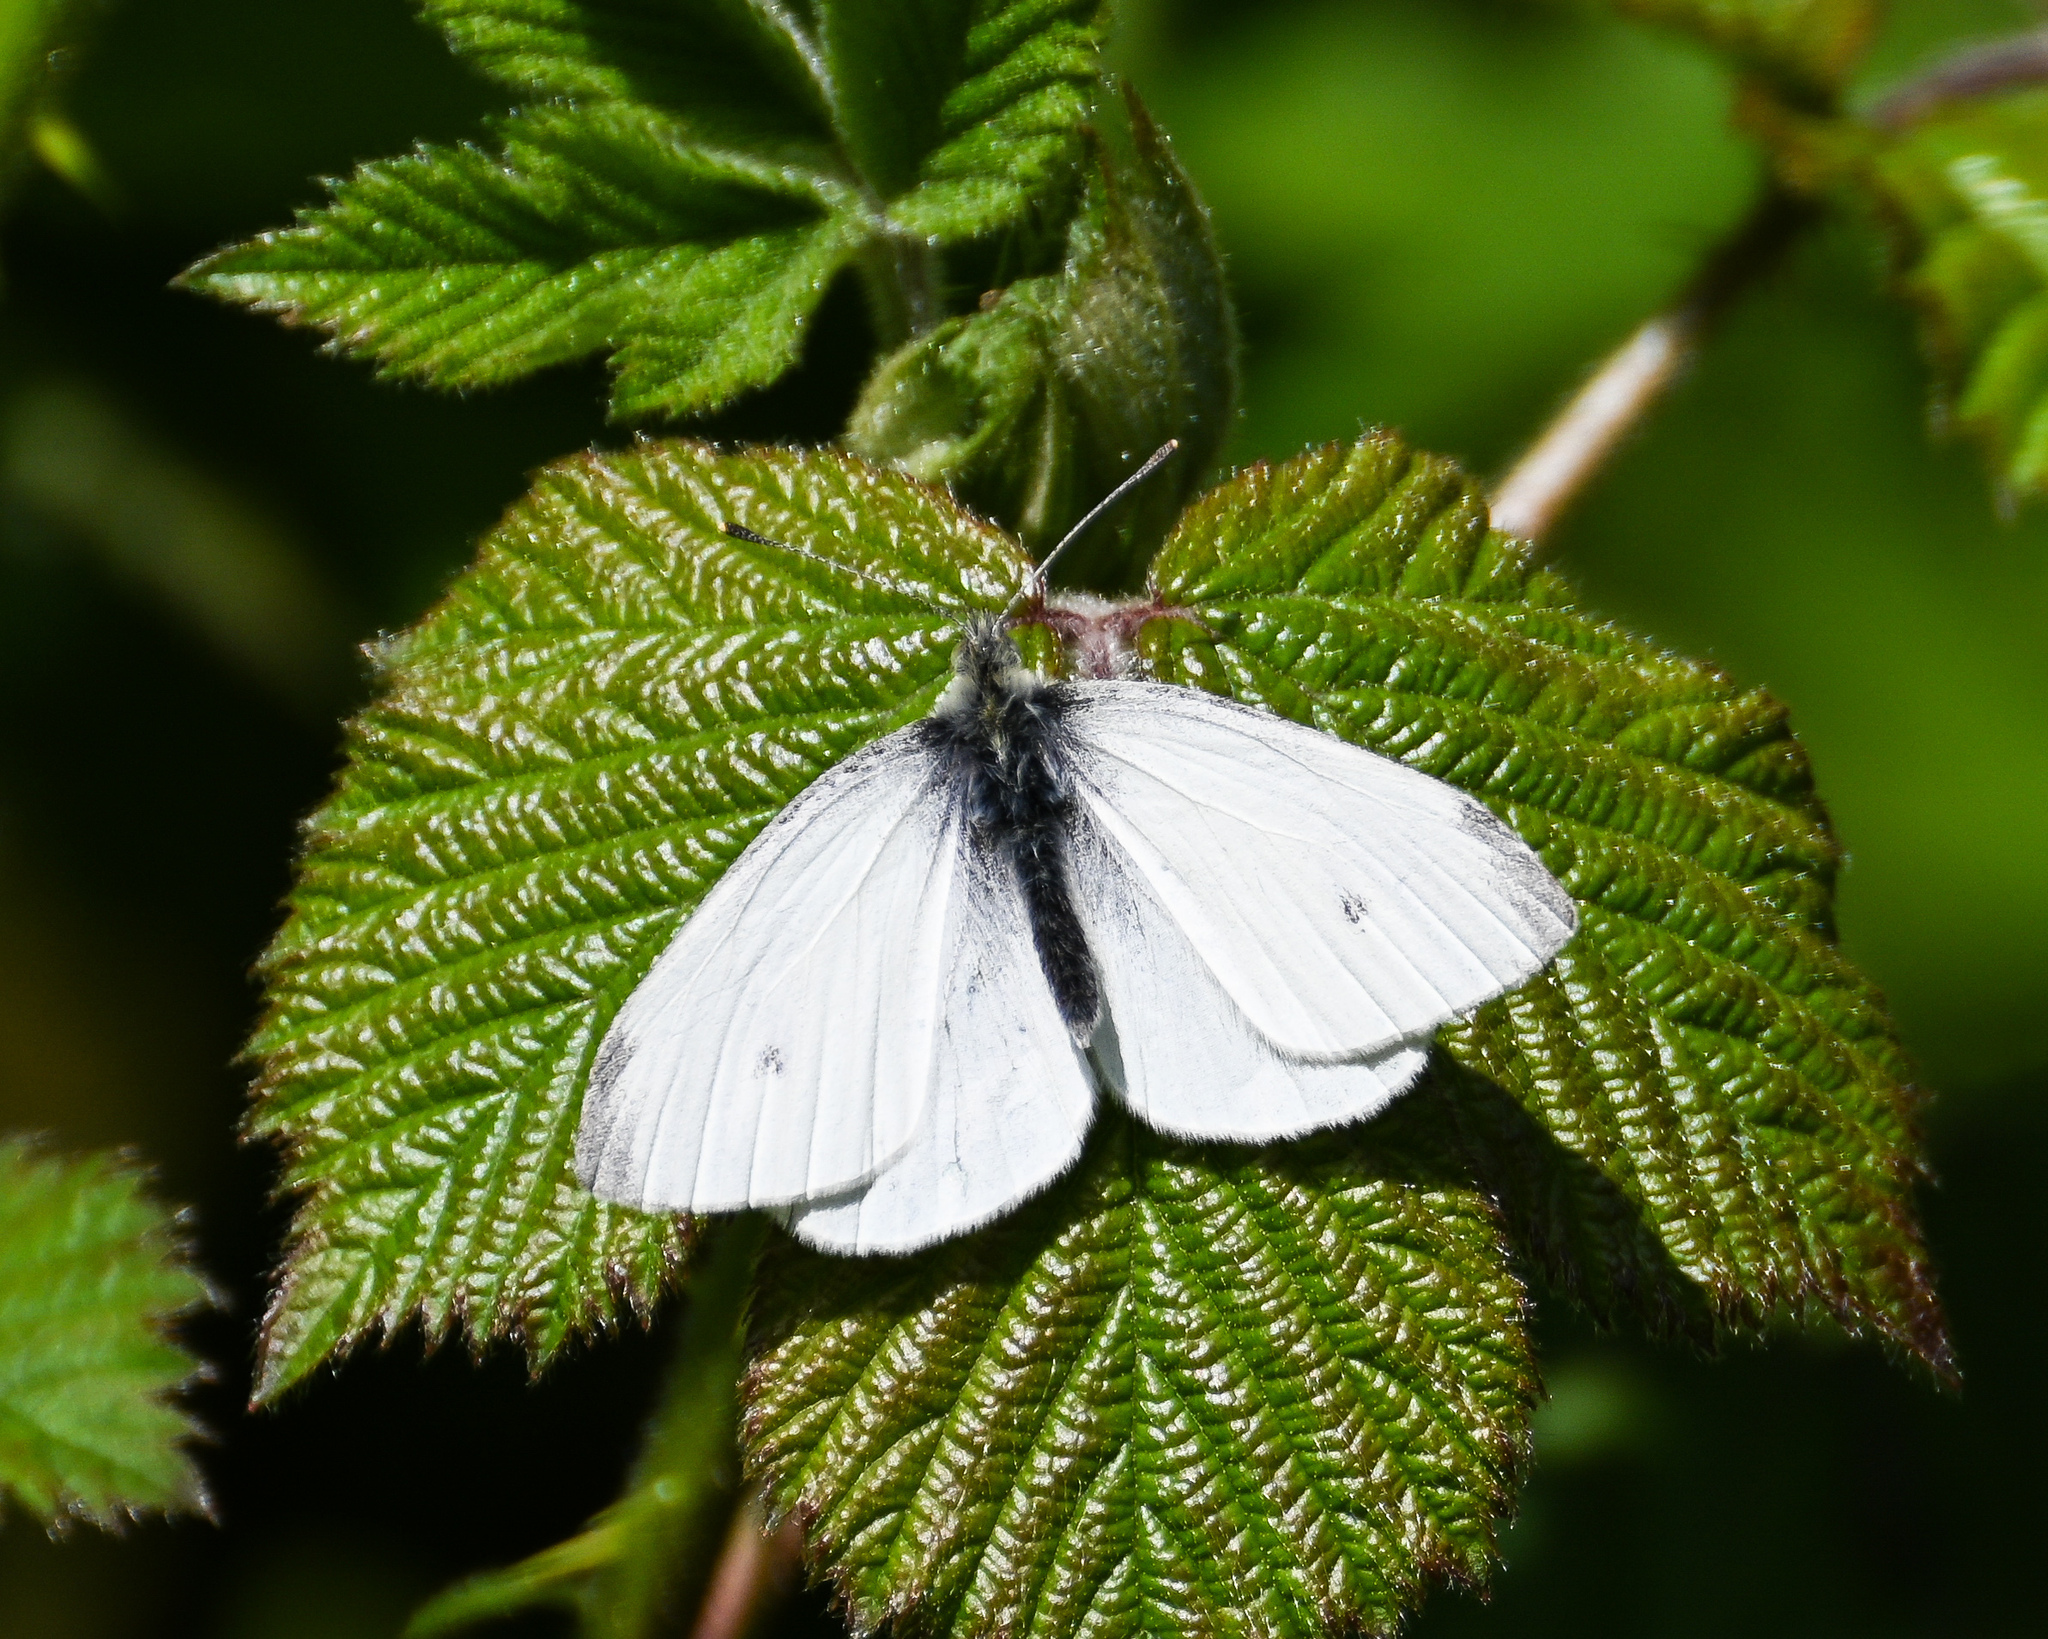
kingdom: Animalia
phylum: Arthropoda
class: Insecta
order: Lepidoptera
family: Pieridae
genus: Pieris
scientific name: Pieris napi
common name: Green-veined white
